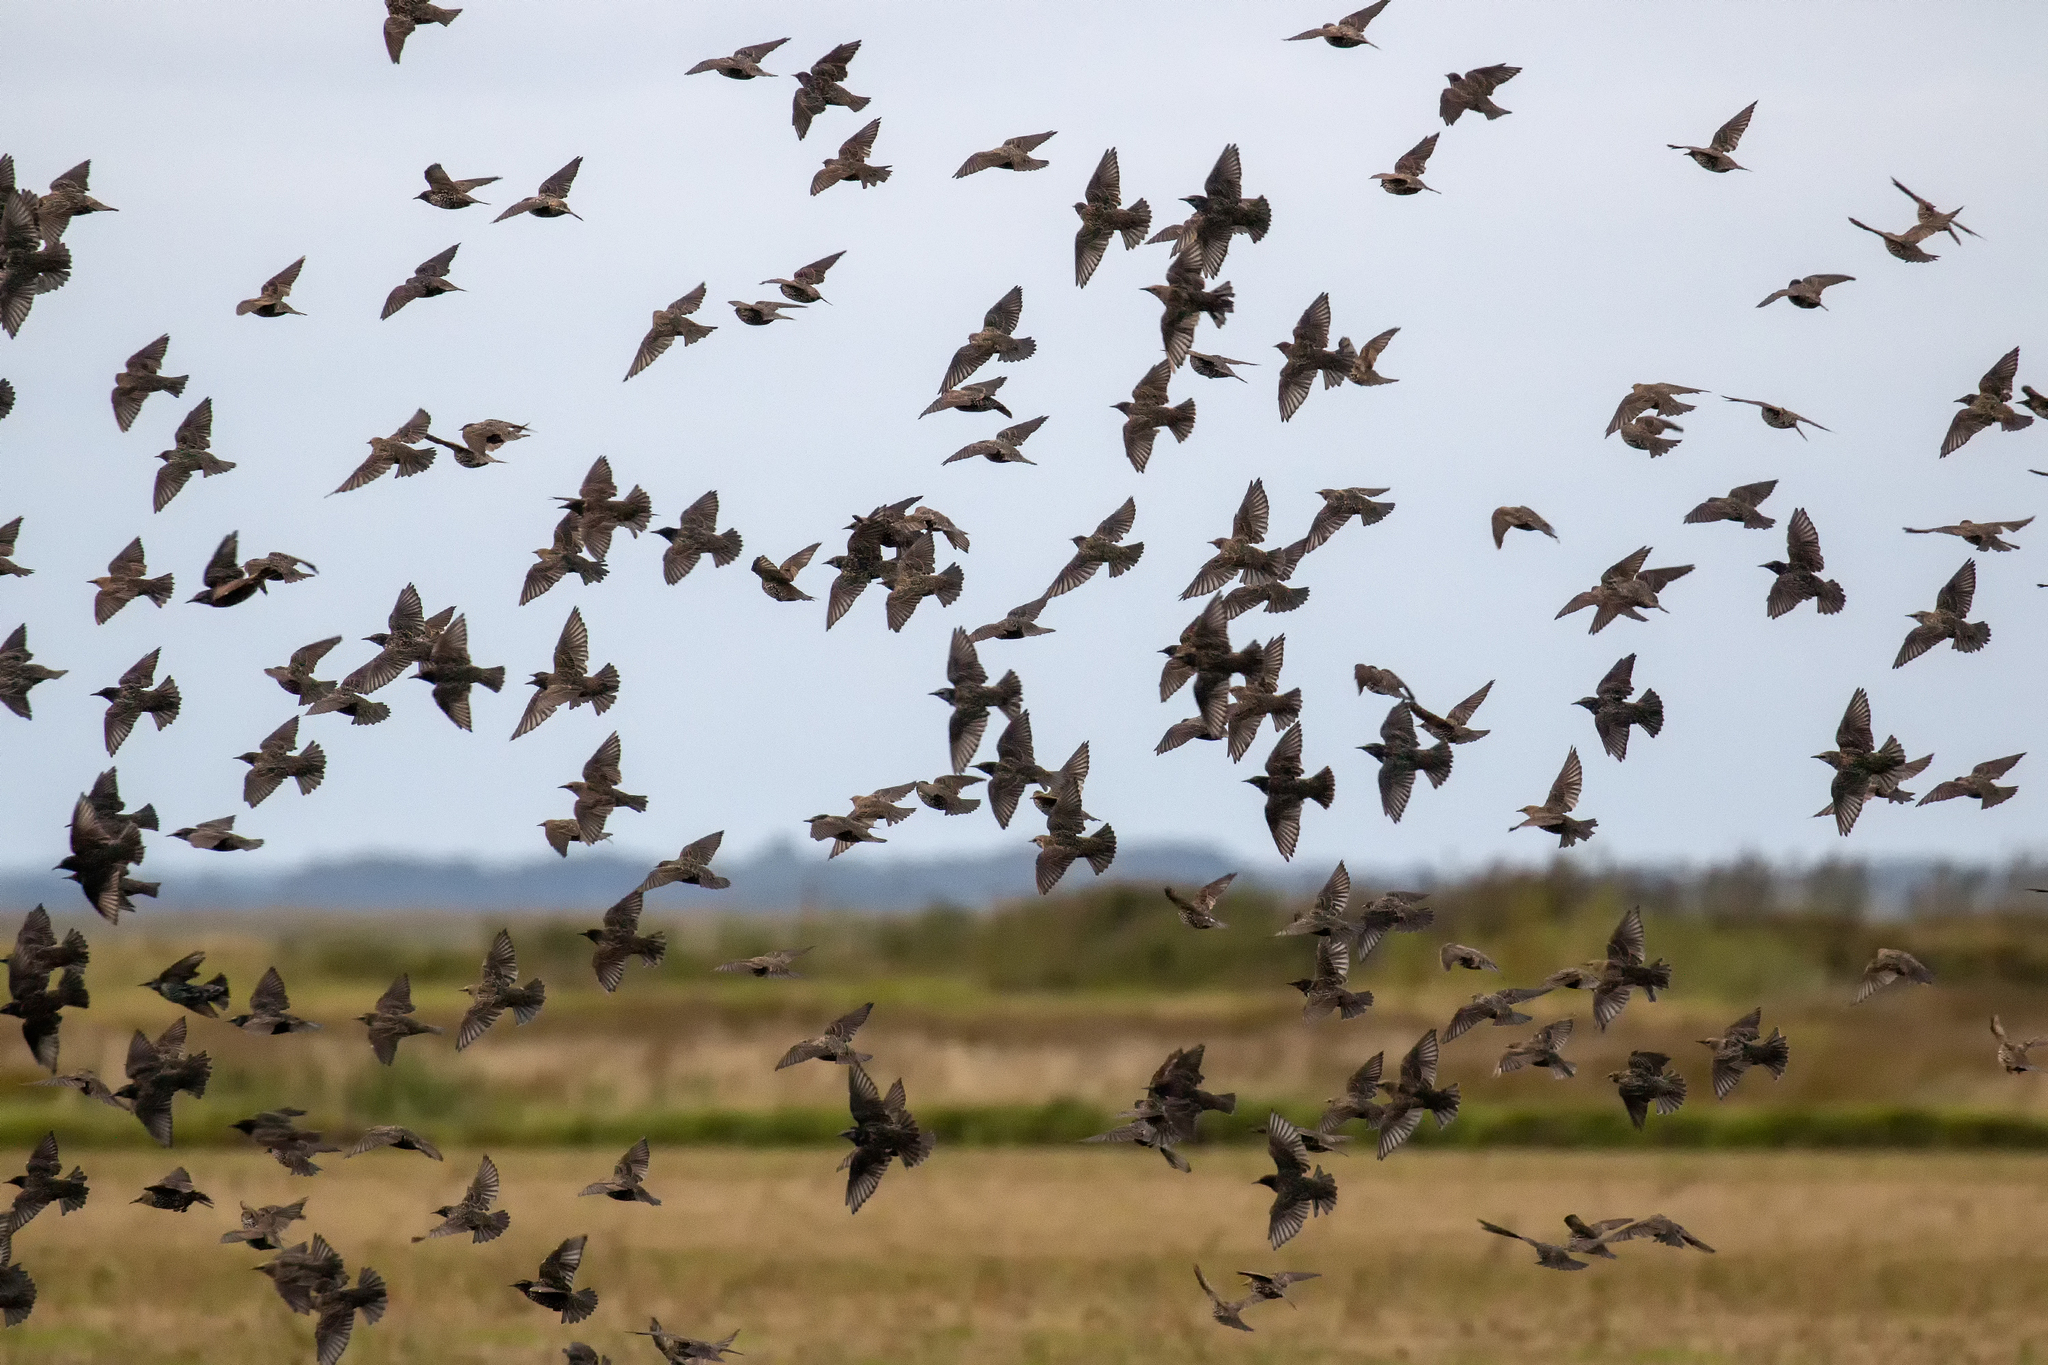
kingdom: Animalia
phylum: Chordata
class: Aves
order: Passeriformes
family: Sturnidae
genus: Sturnus
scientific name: Sturnus vulgaris
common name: Common starling
